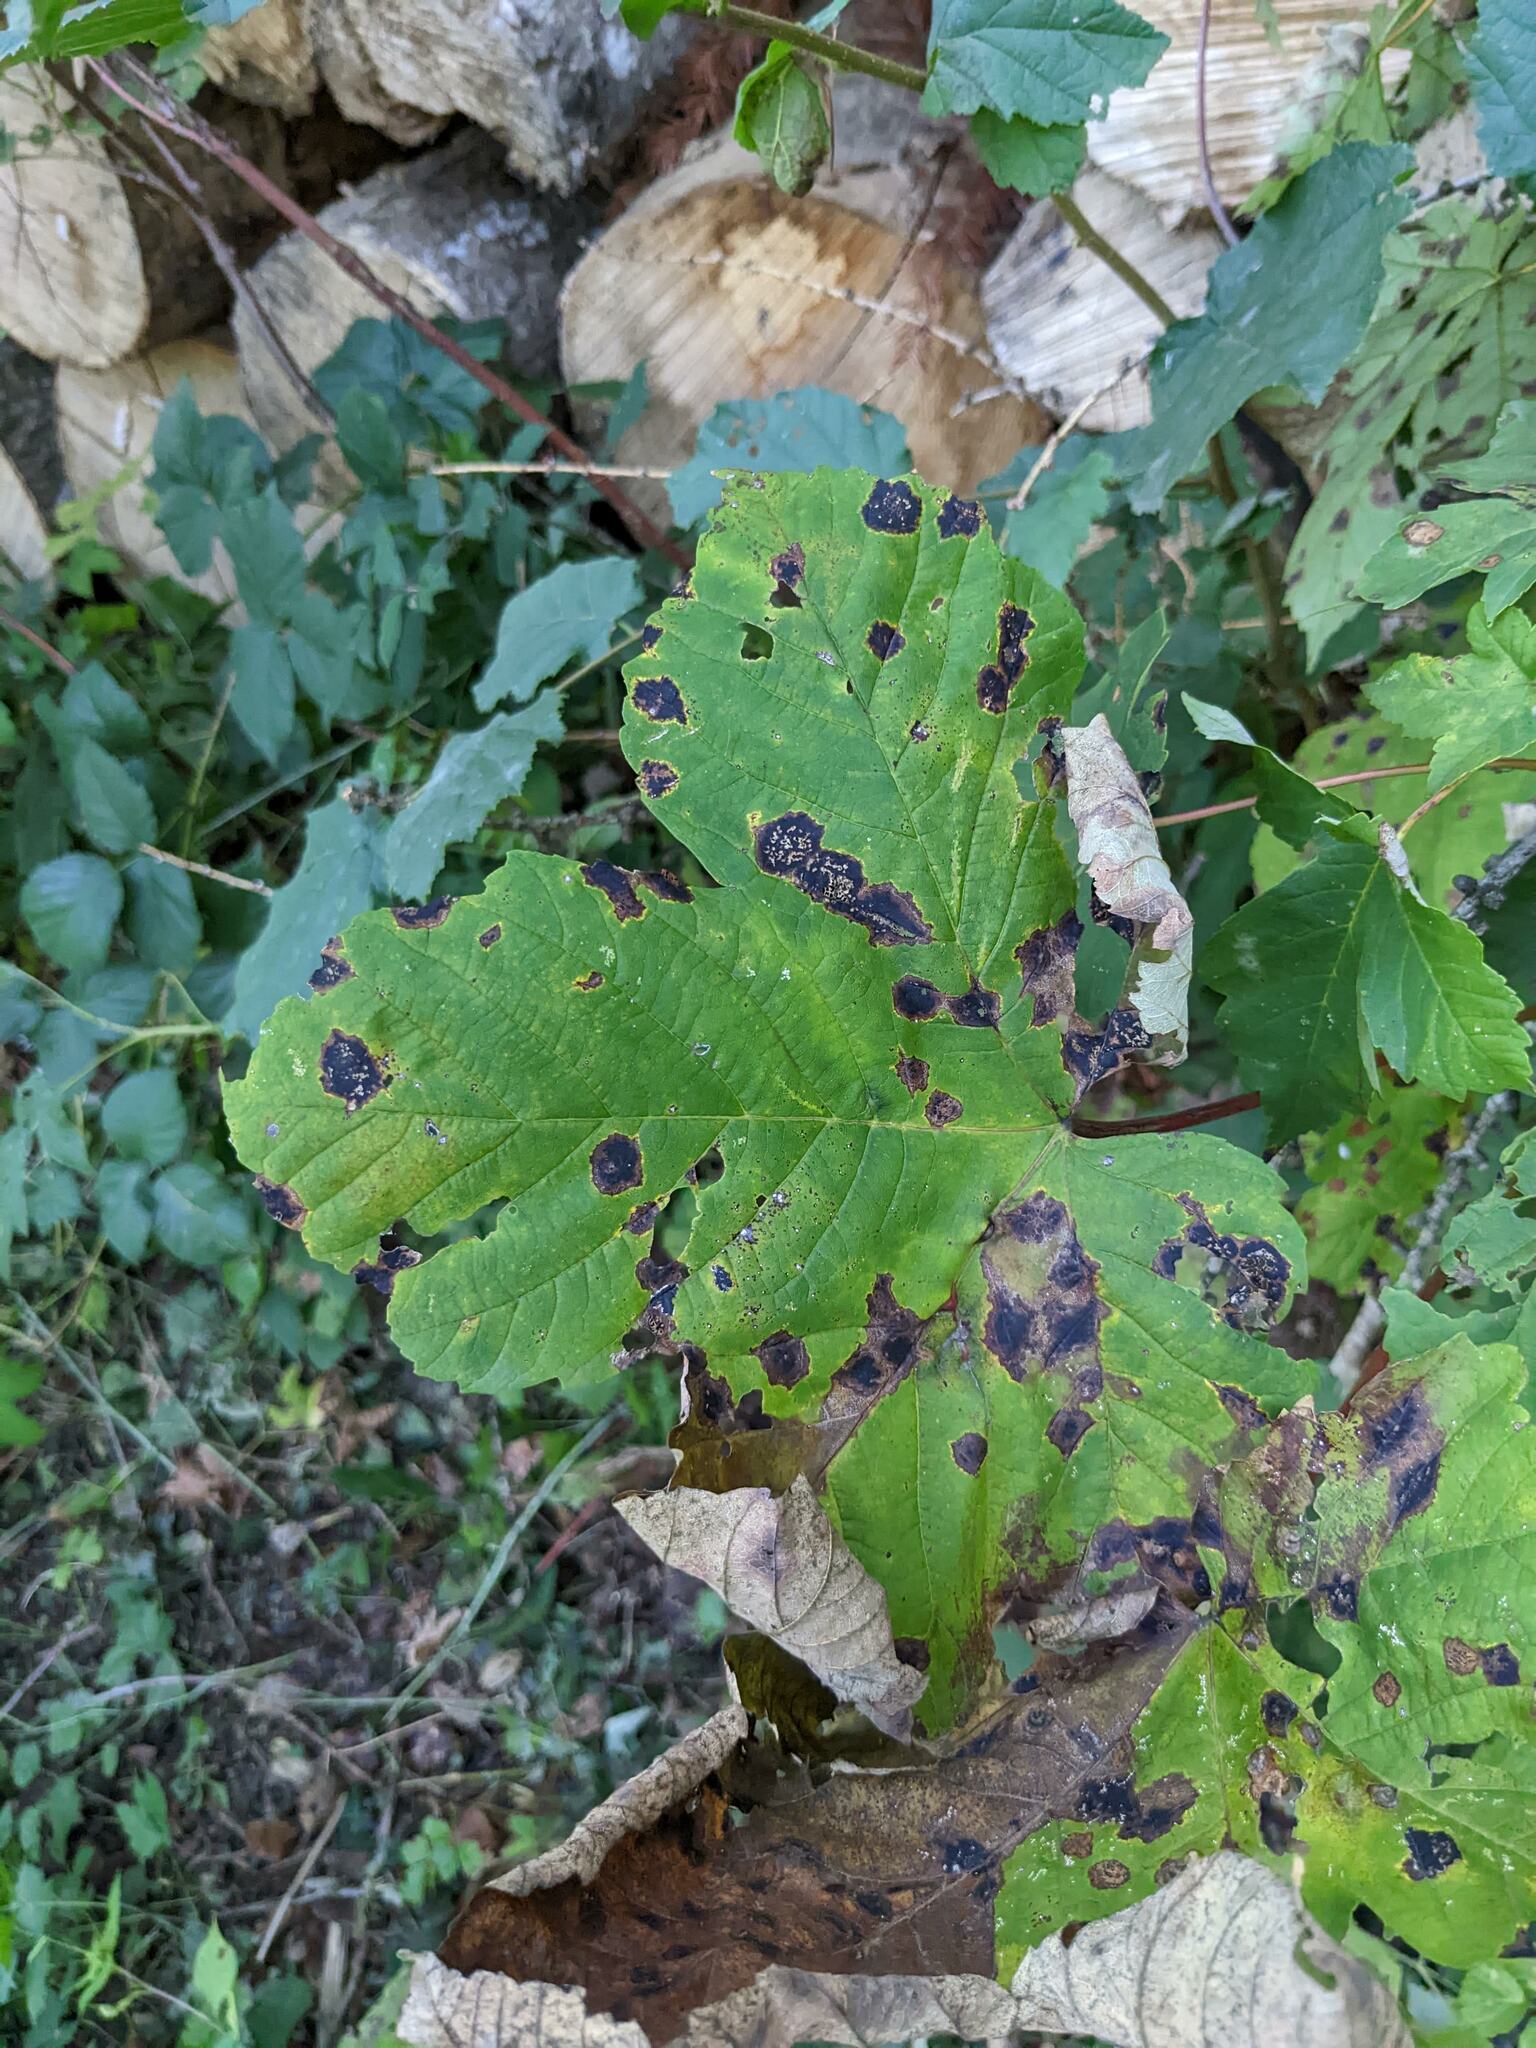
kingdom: Plantae
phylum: Tracheophyta
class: Magnoliopsida
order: Sapindales
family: Sapindaceae
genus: Acer
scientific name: Acer pseudoplatanus
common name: Sycamore
